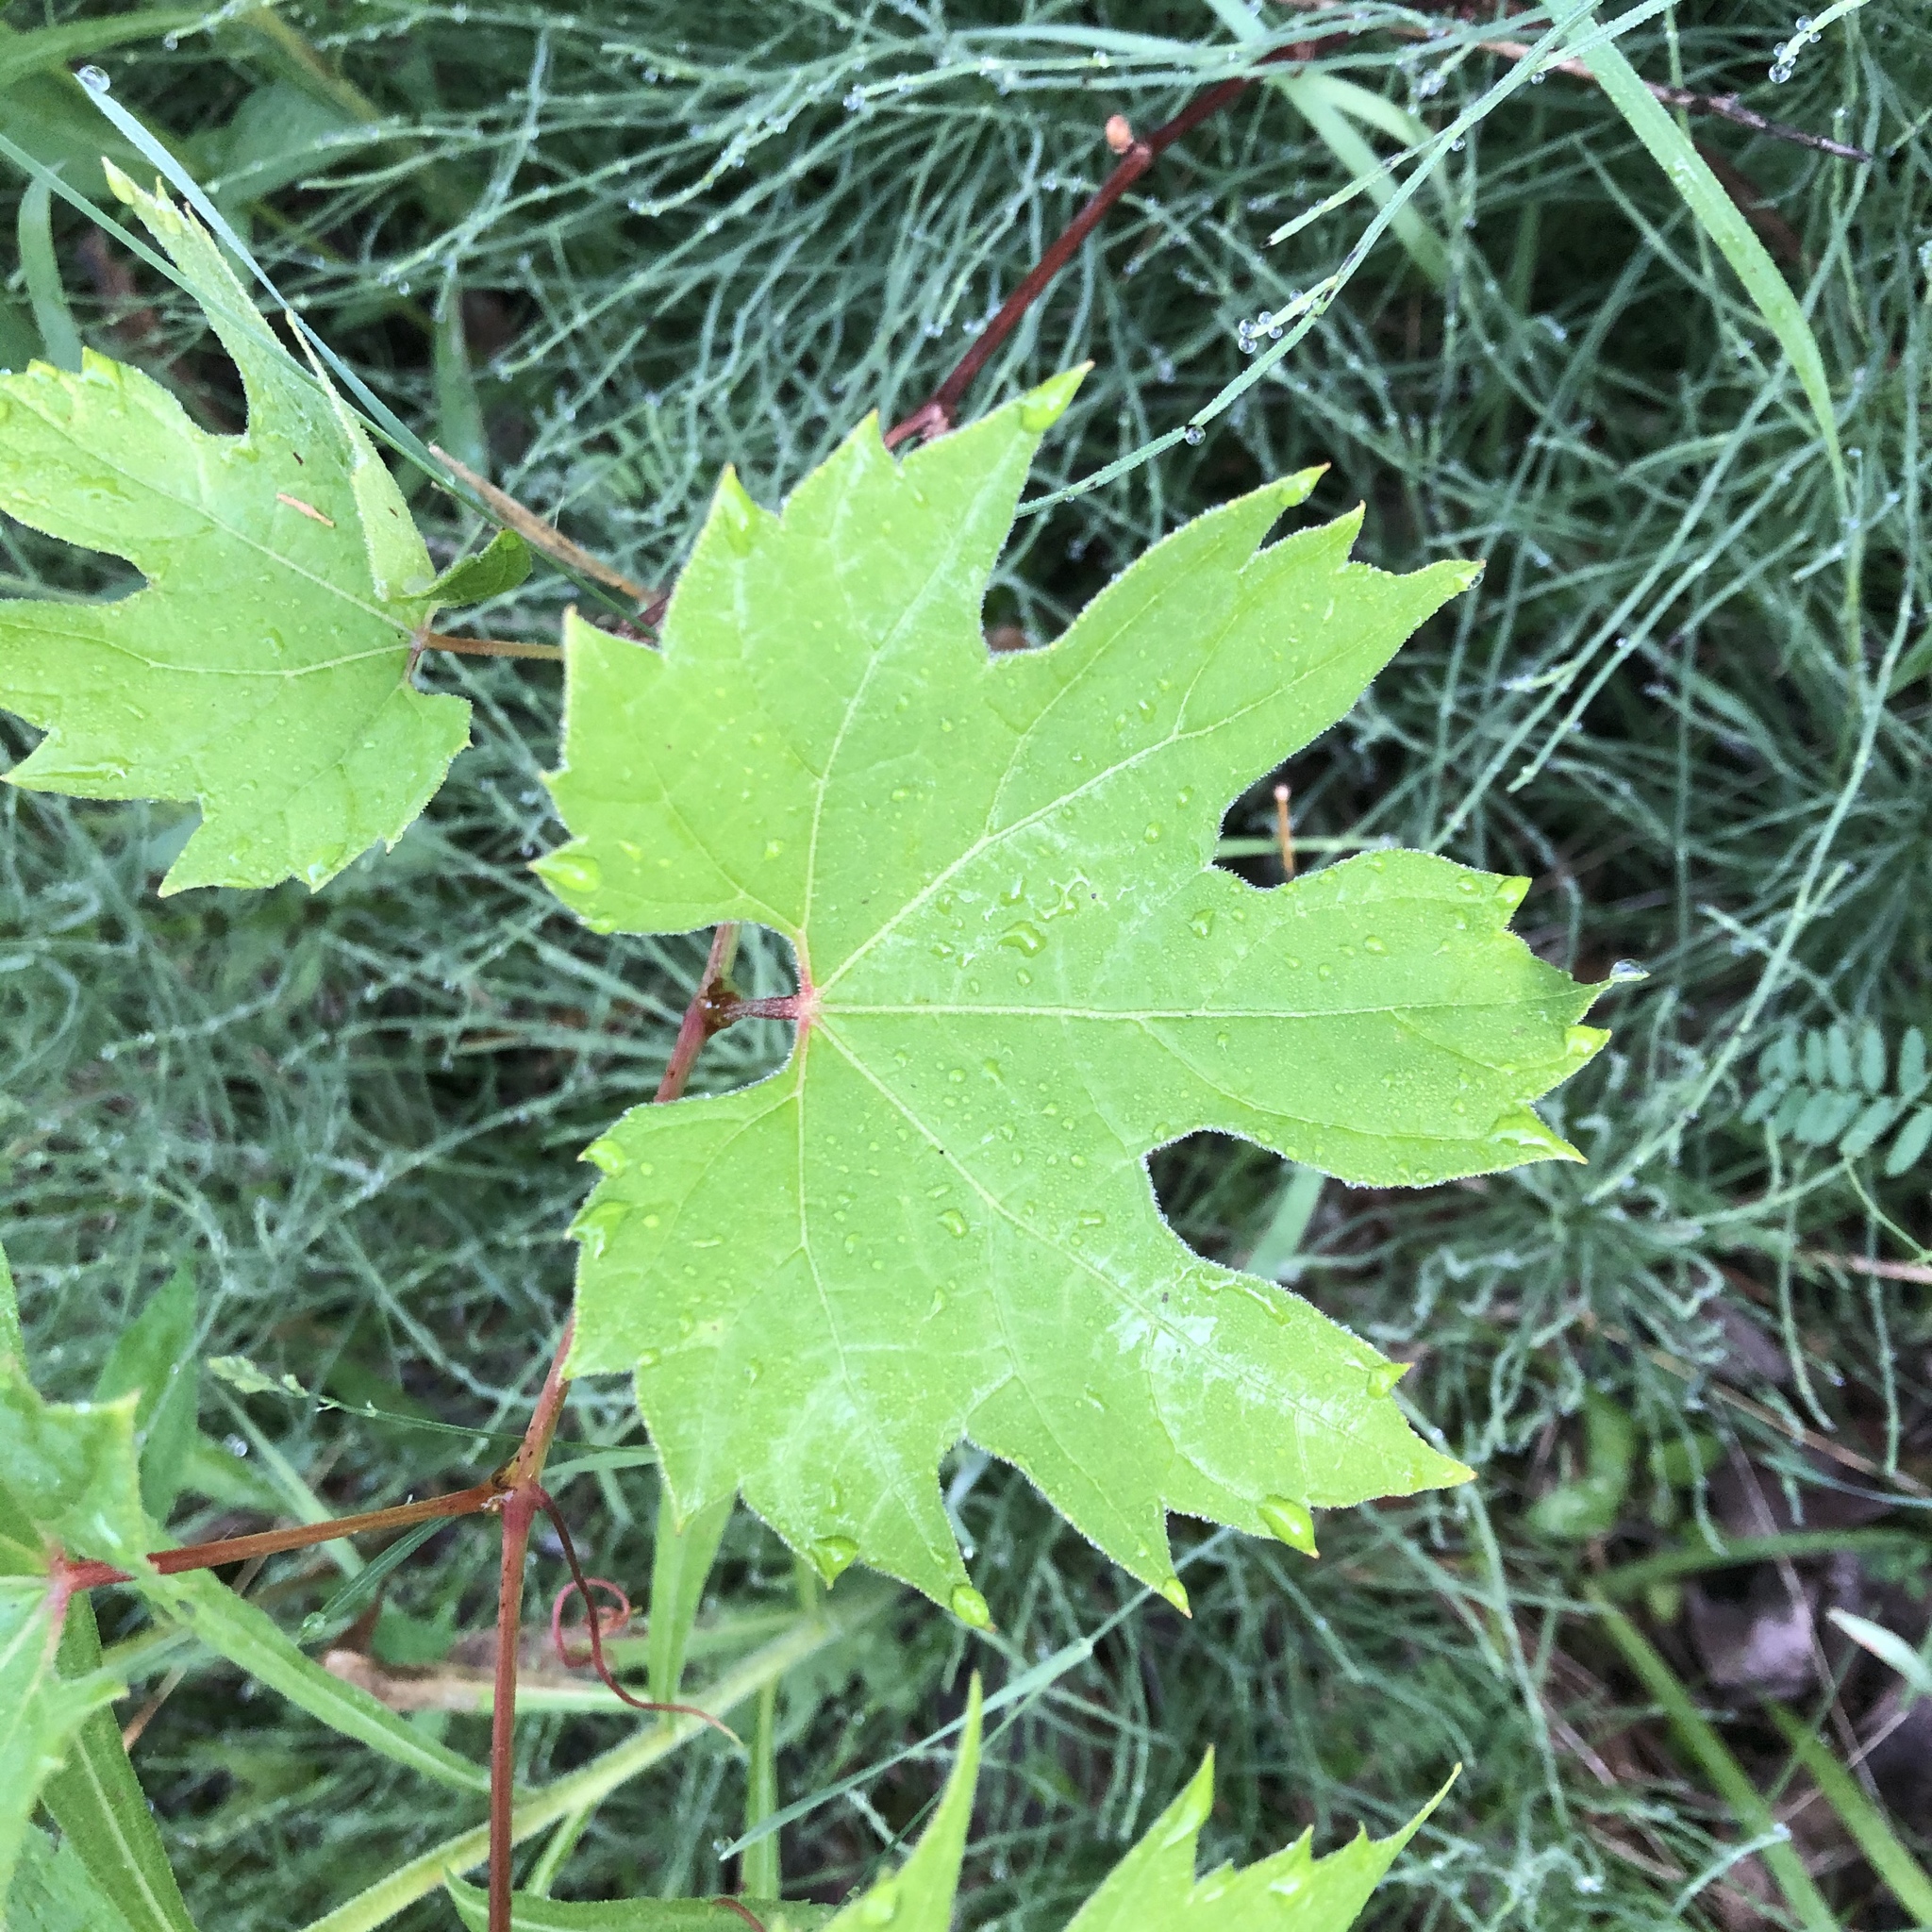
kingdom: Plantae
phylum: Tracheophyta
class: Magnoliopsida
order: Vitales
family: Vitaceae
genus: Vitis
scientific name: Vitis riparia
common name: Frost grape
